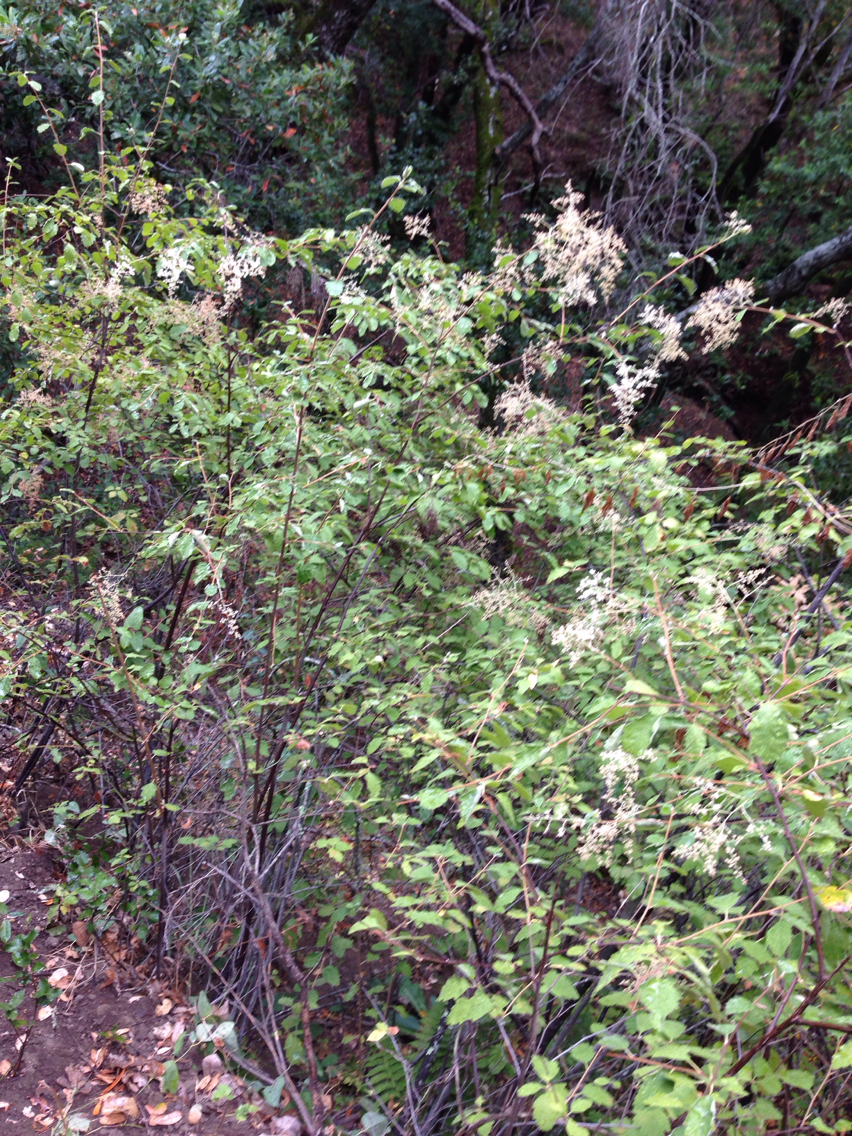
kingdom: Plantae
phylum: Tracheophyta
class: Magnoliopsida
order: Rosales
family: Rosaceae
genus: Holodiscus
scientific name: Holodiscus discolor
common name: Oceanspray
